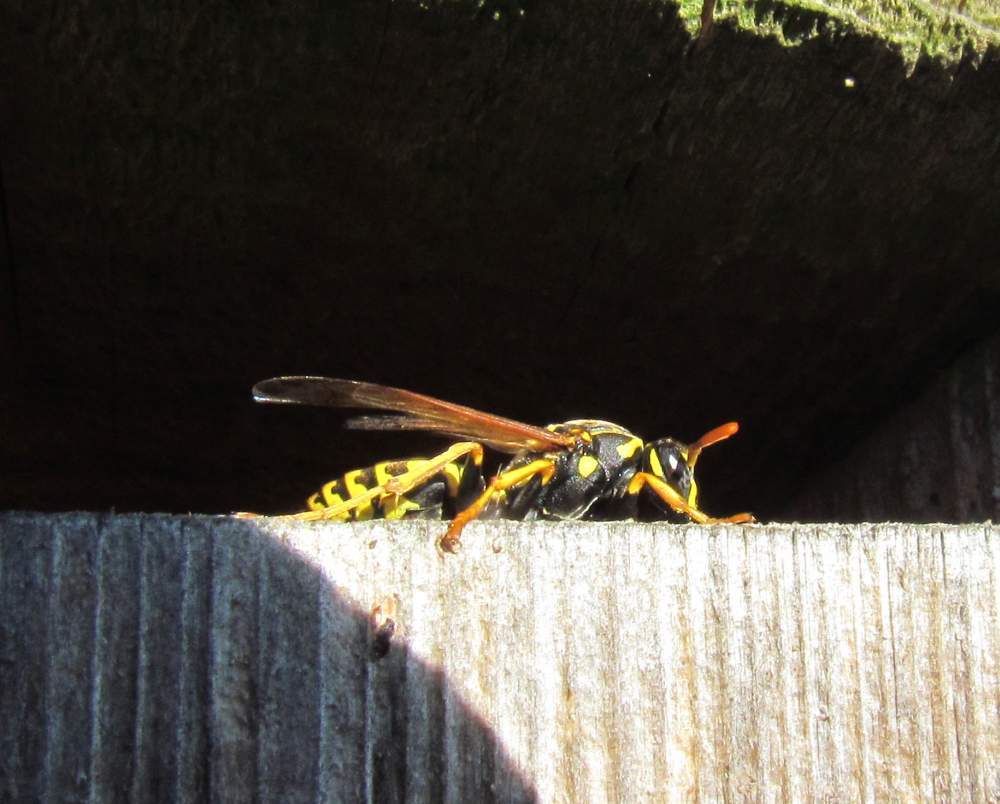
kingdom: Animalia
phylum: Arthropoda
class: Insecta
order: Hymenoptera
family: Eumenidae
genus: Polistes
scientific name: Polistes dominula
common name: Paper wasp
